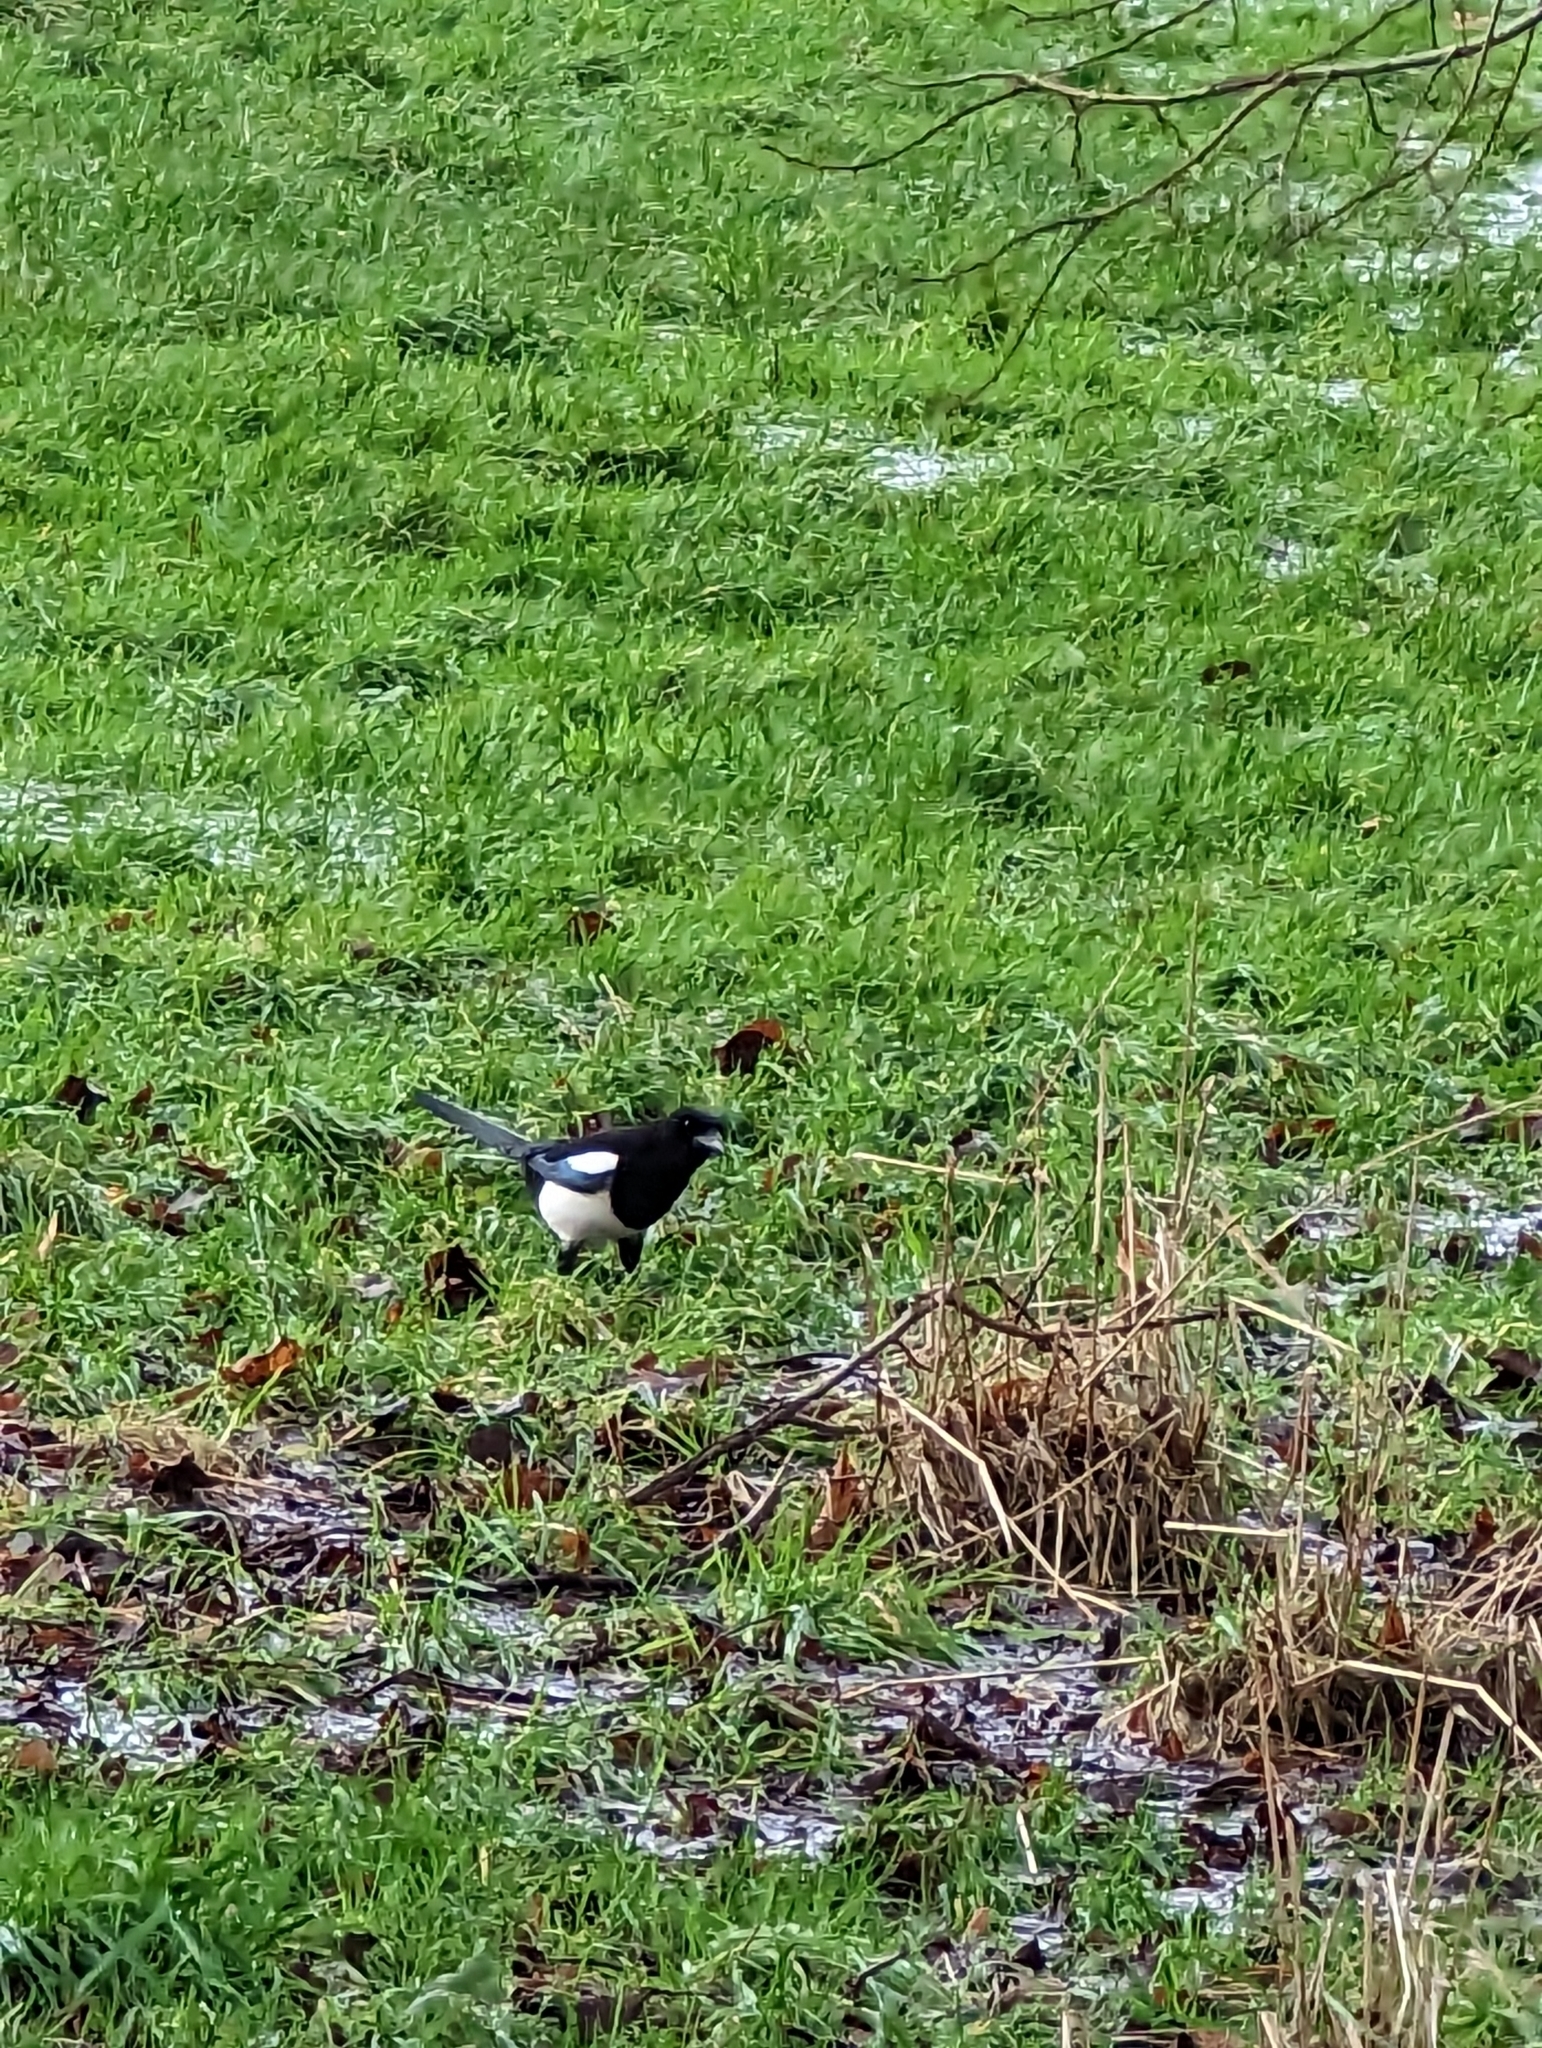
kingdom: Animalia
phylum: Chordata
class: Aves
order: Passeriformes
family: Corvidae
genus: Pica
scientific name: Pica pica
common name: Eurasian magpie
